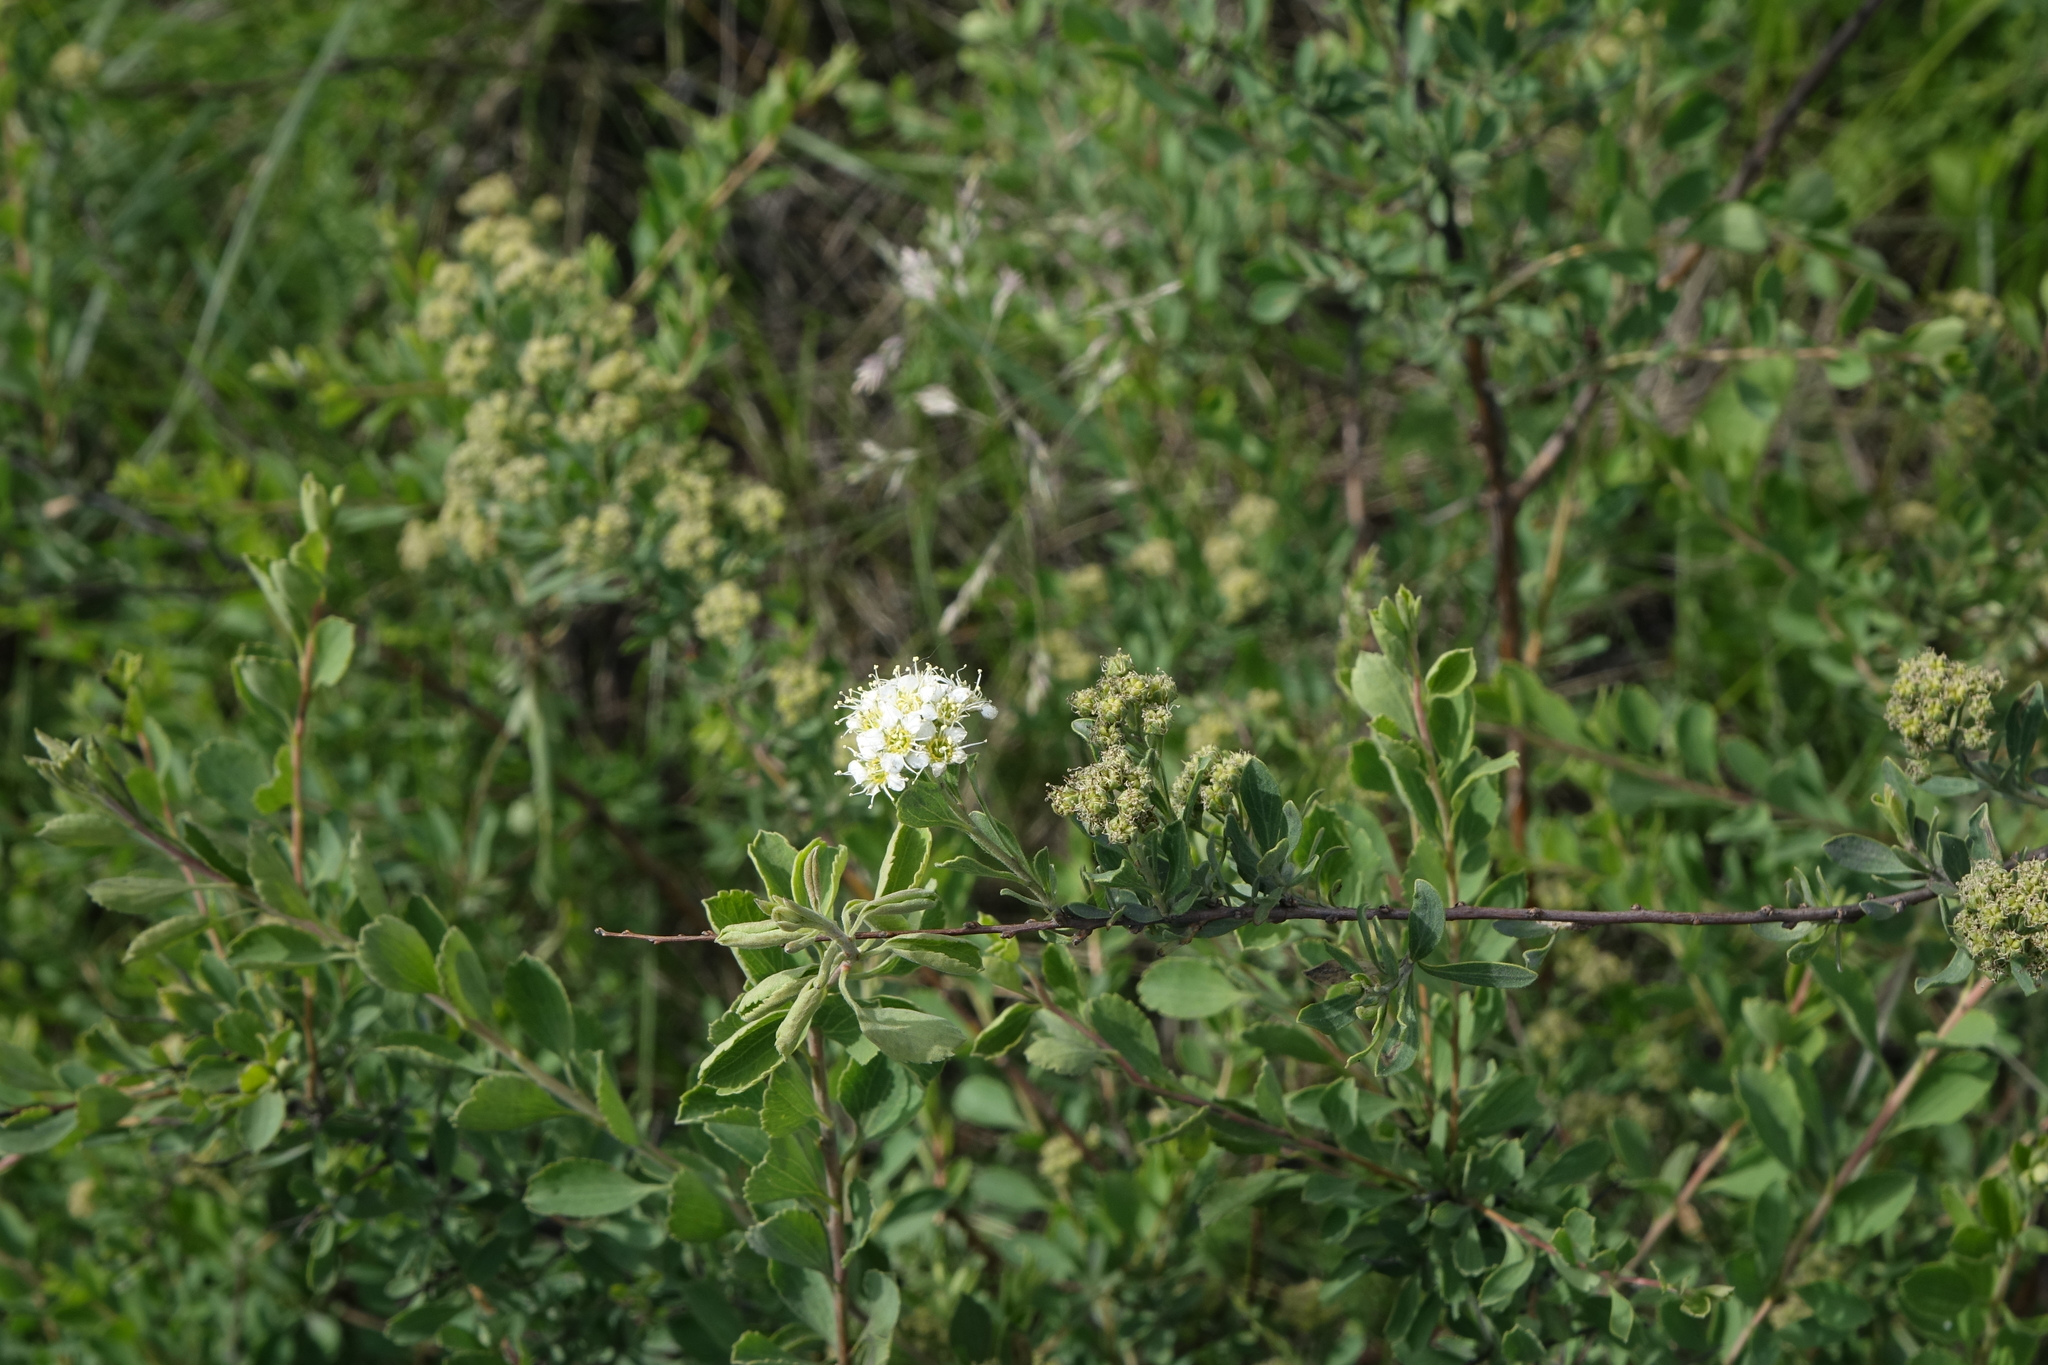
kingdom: Plantae
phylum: Tracheophyta
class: Magnoliopsida
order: Rosales
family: Rosaceae
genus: Spiraea
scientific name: Spiraea crenata
